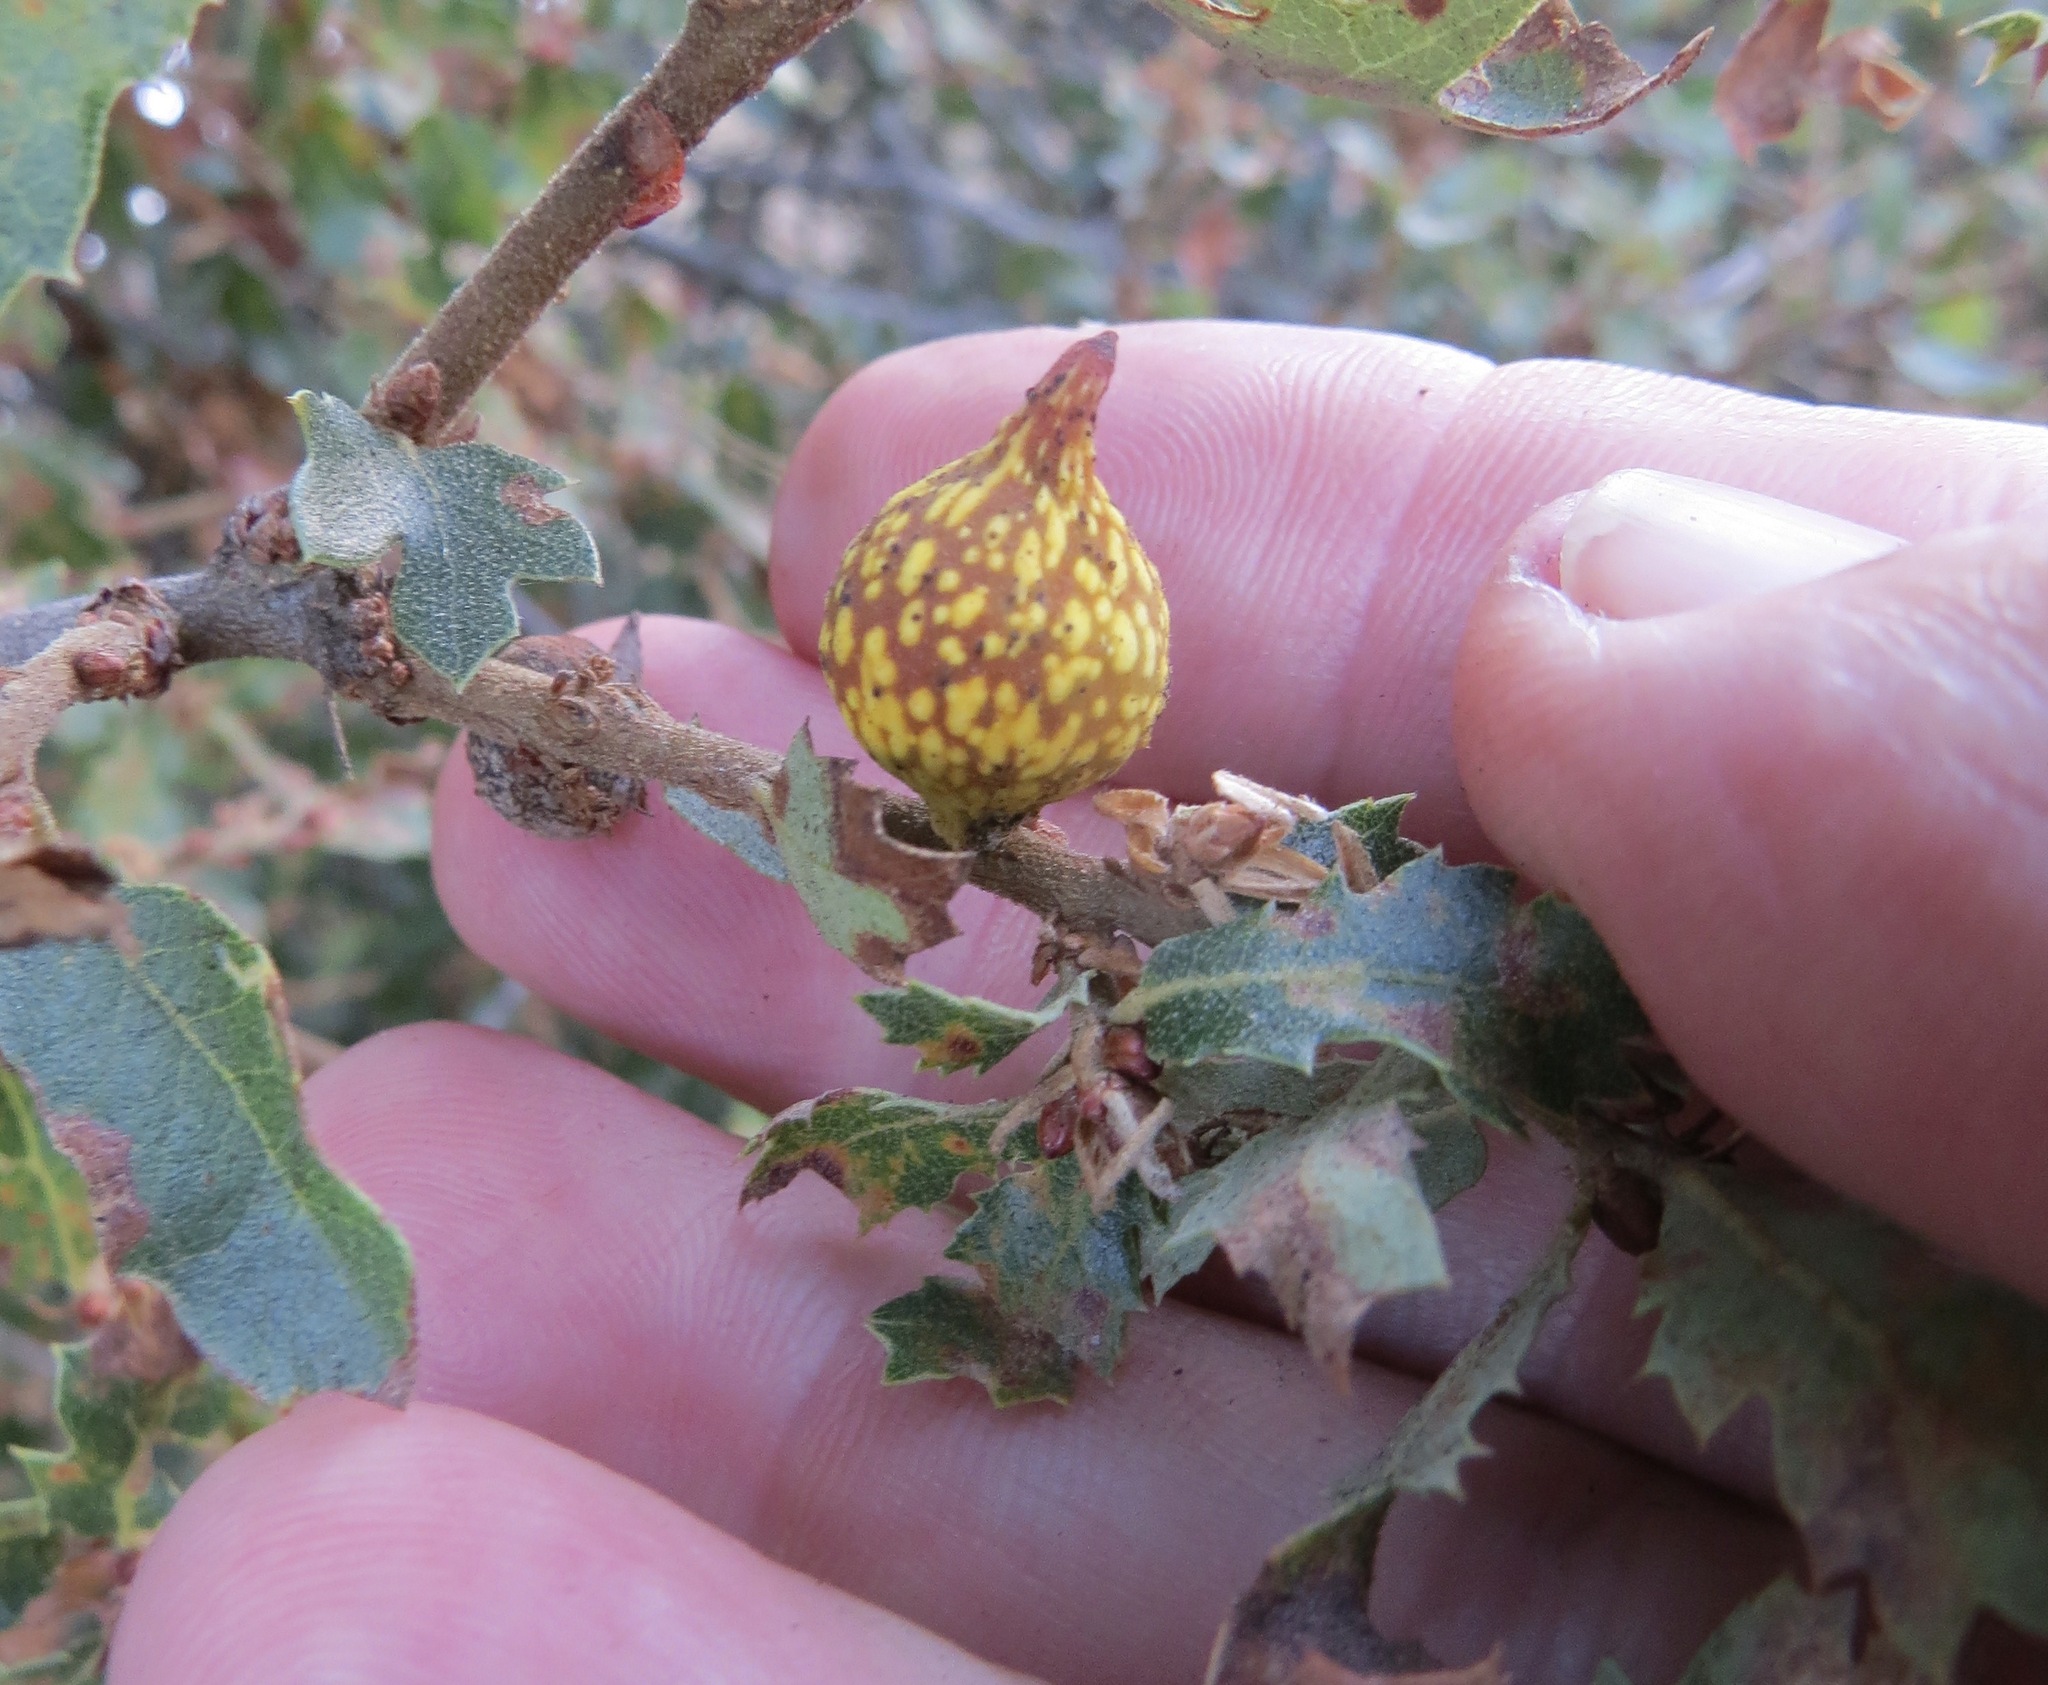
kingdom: Animalia
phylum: Arthropoda
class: Insecta
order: Hymenoptera
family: Cynipidae
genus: Burnettweldia
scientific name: Burnettweldia
